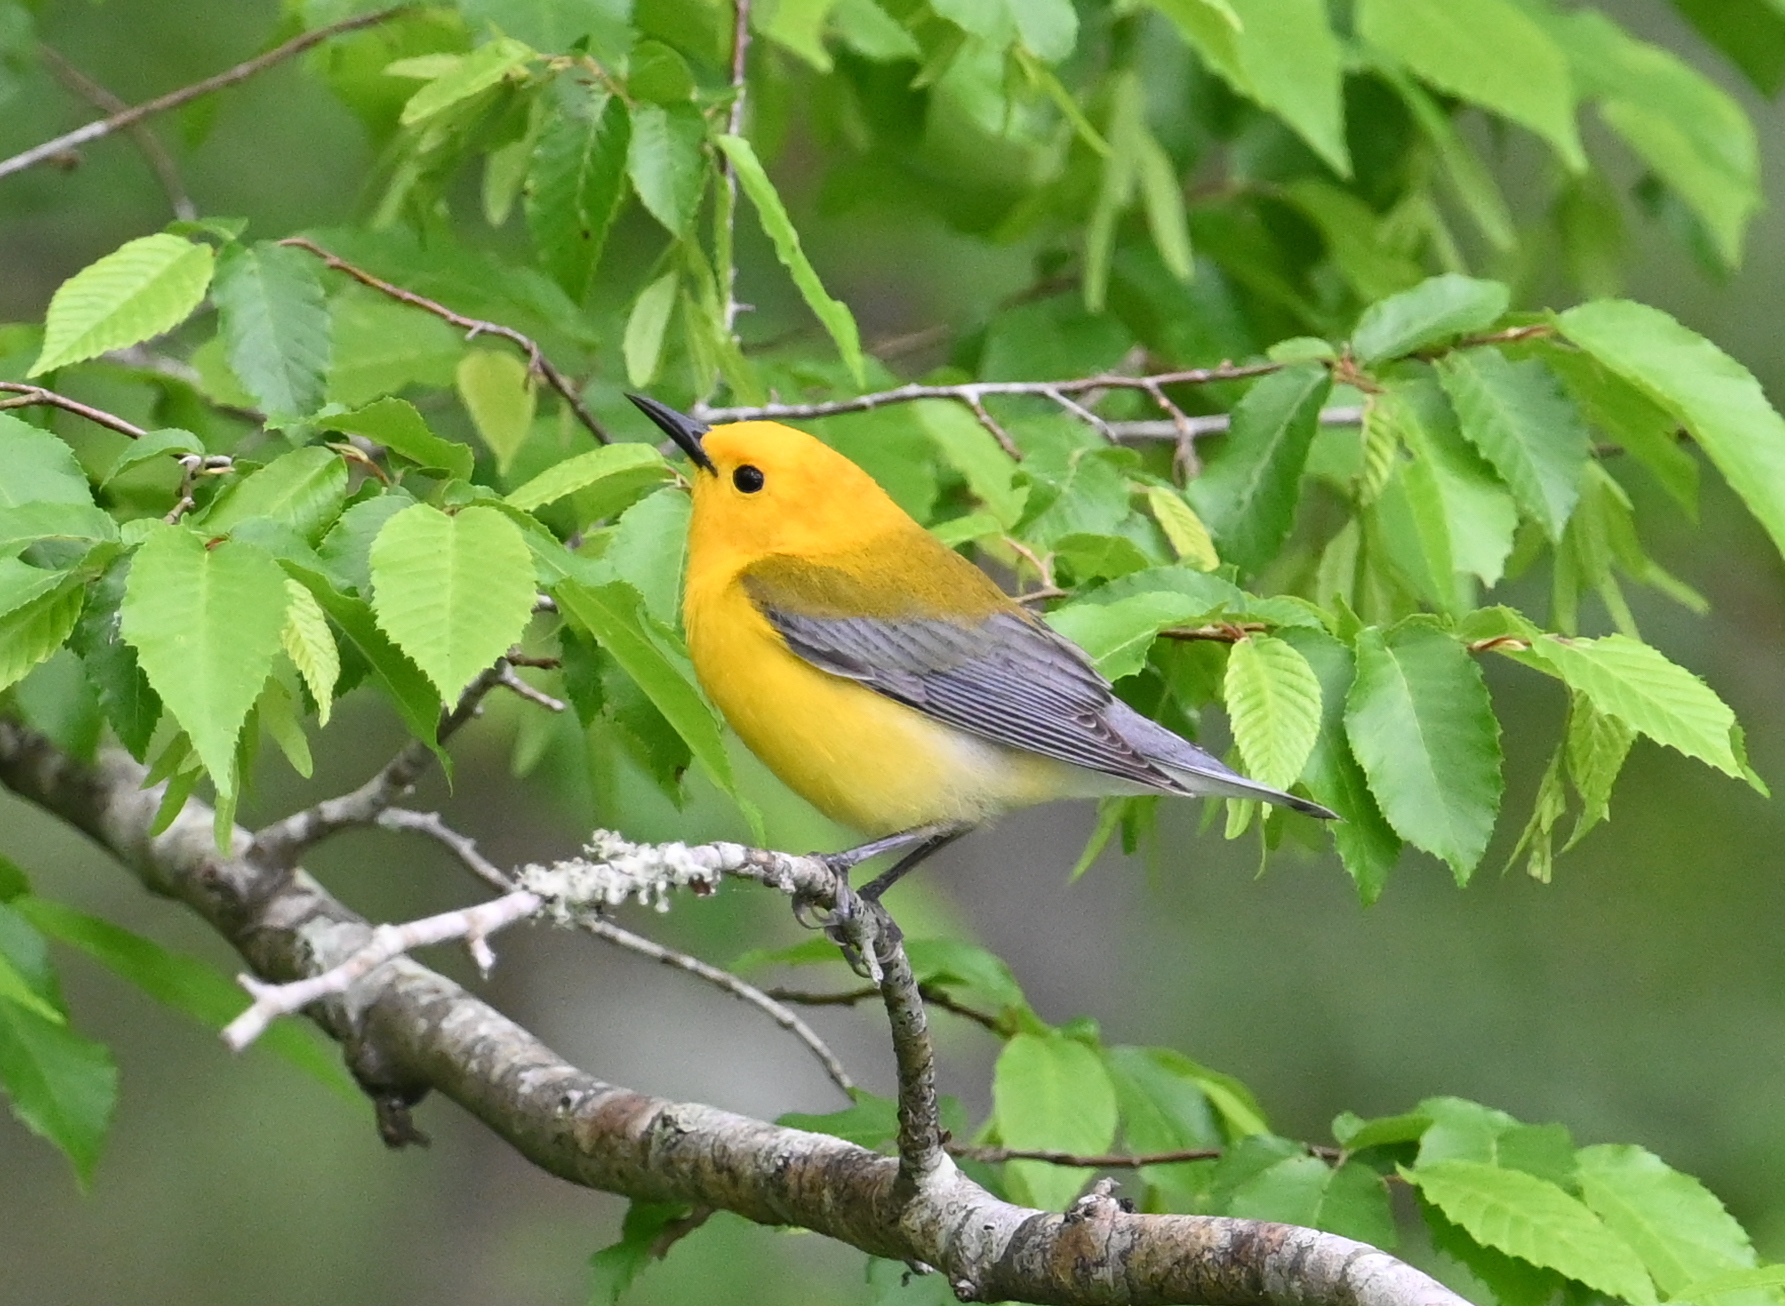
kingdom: Animalia
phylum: Chordata
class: Aves
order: Passeriformes
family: Parulidae
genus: Protonotaria
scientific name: Protonotaria citrea
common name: Prothonotary warbler
